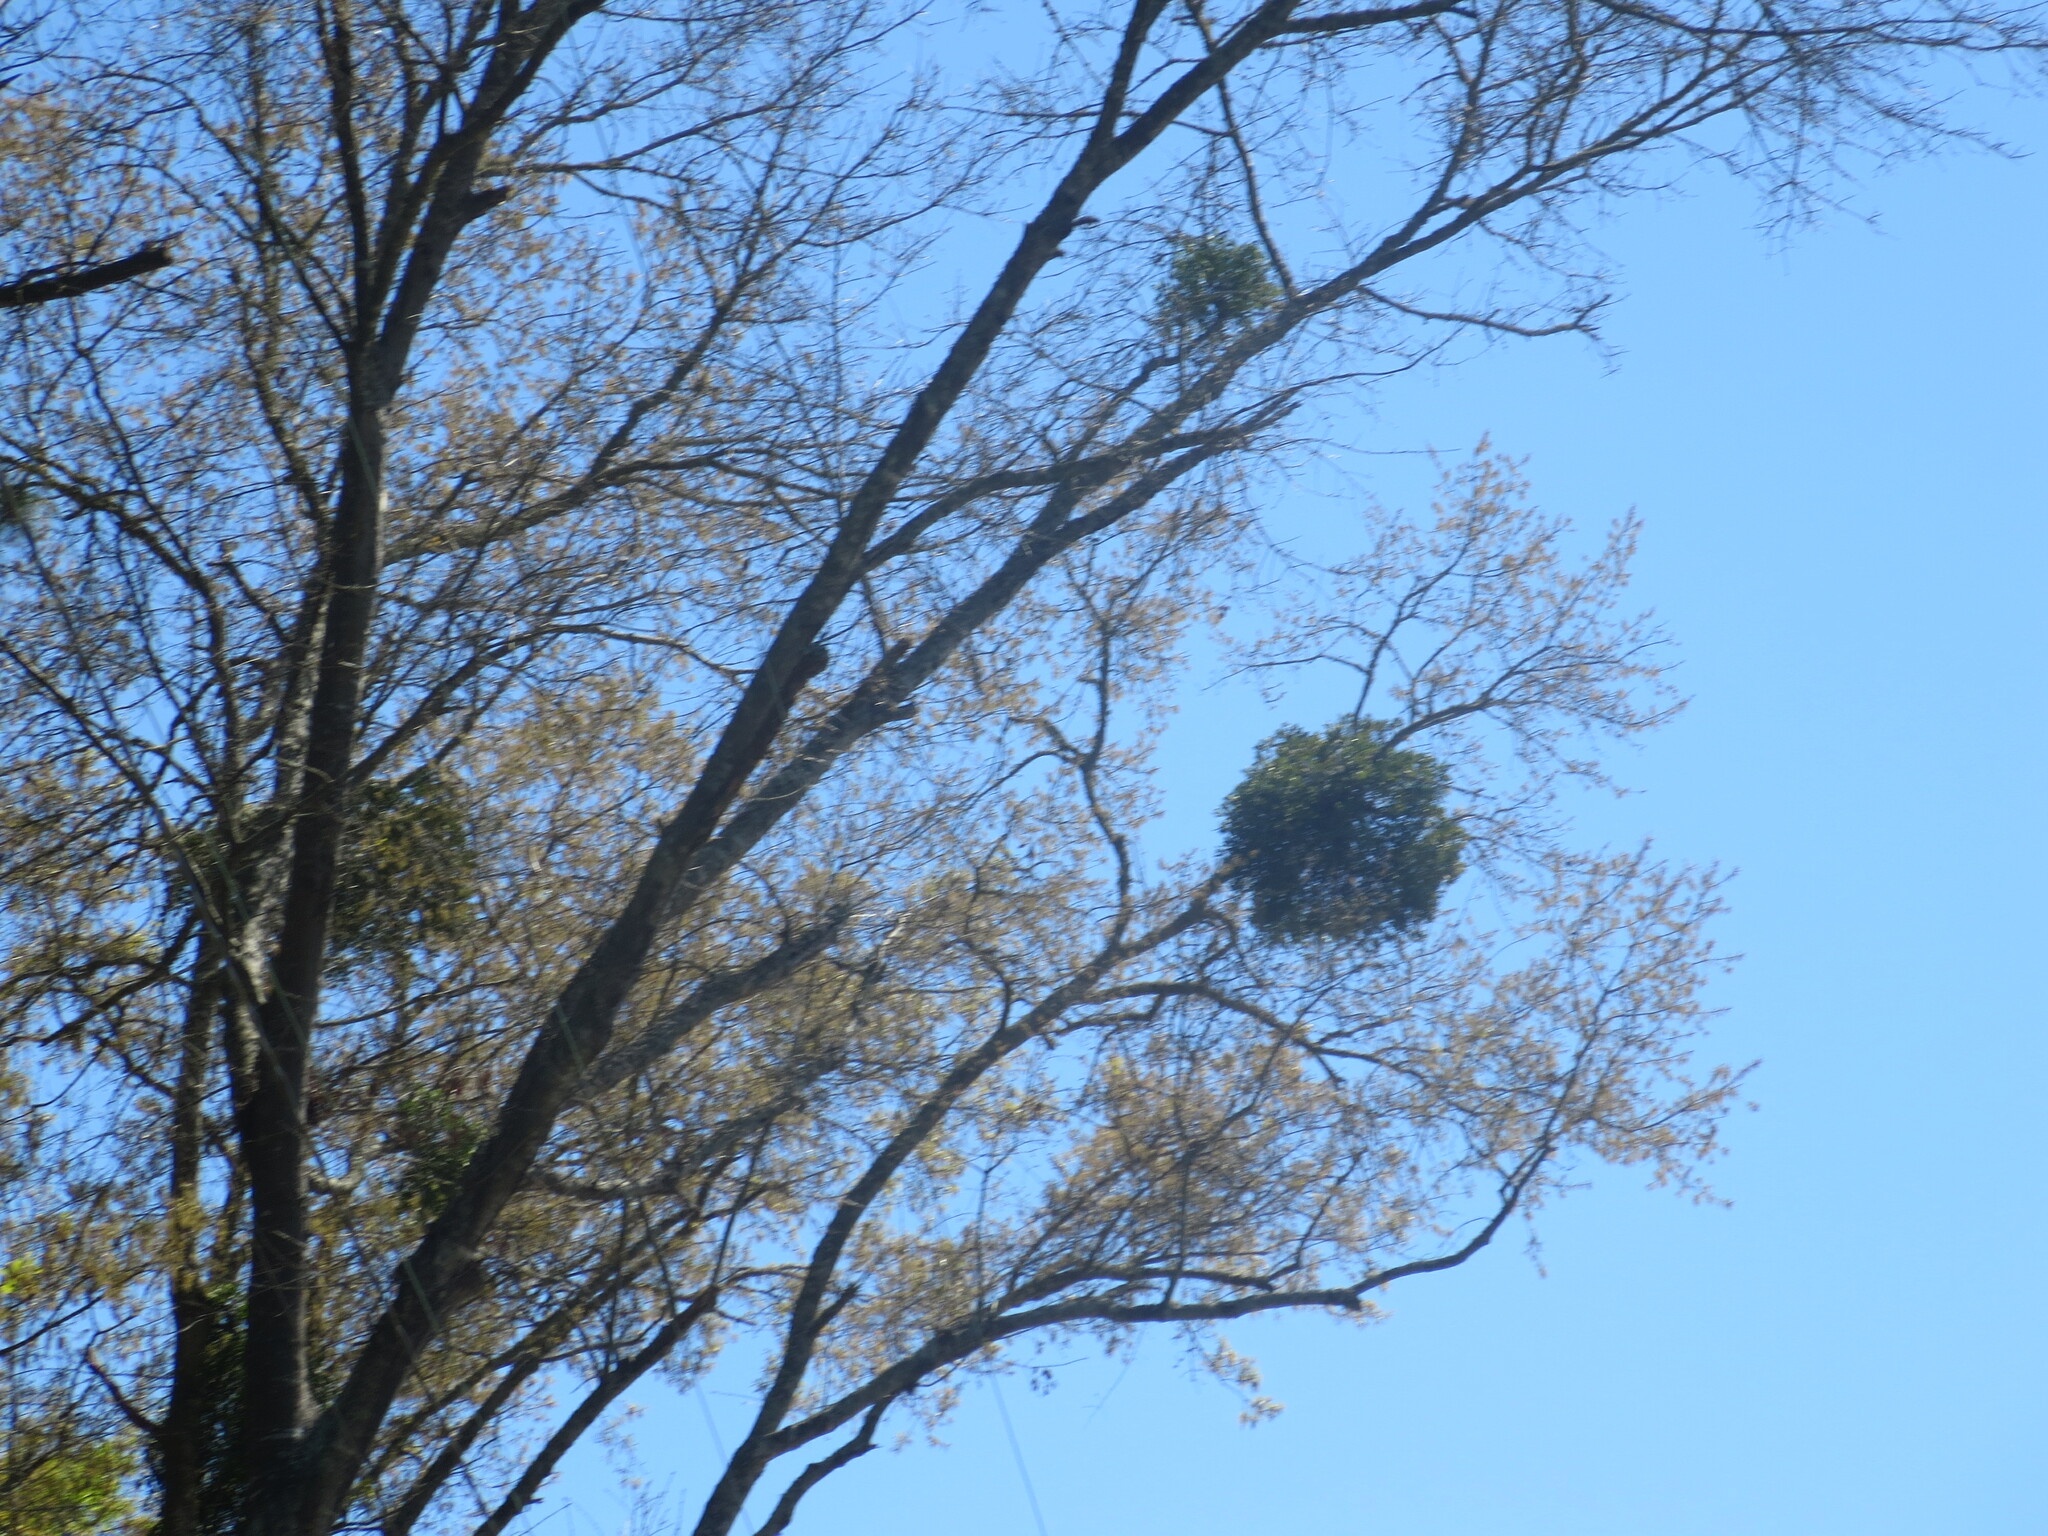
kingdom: Plantae
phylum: Tracheophyta
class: Magnoliopsida
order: Santalales
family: Viscaceae
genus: Phoradendron
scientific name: Phoradendron leucarpum
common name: Pacific mistletoe
